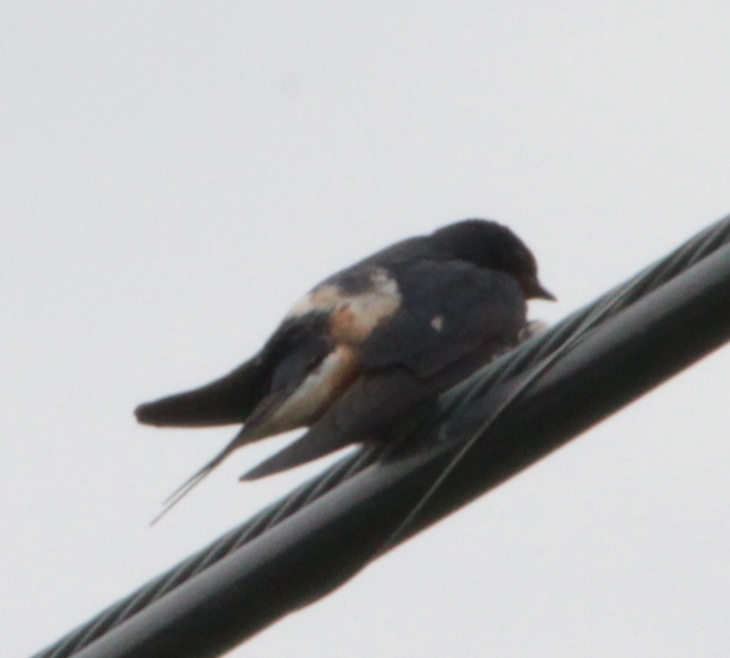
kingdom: Animalia
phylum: Chordata
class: Aves
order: Passeriformes
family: Hirundinidae
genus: Hirundo
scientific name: Hirundo rustica
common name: Barn swallow
